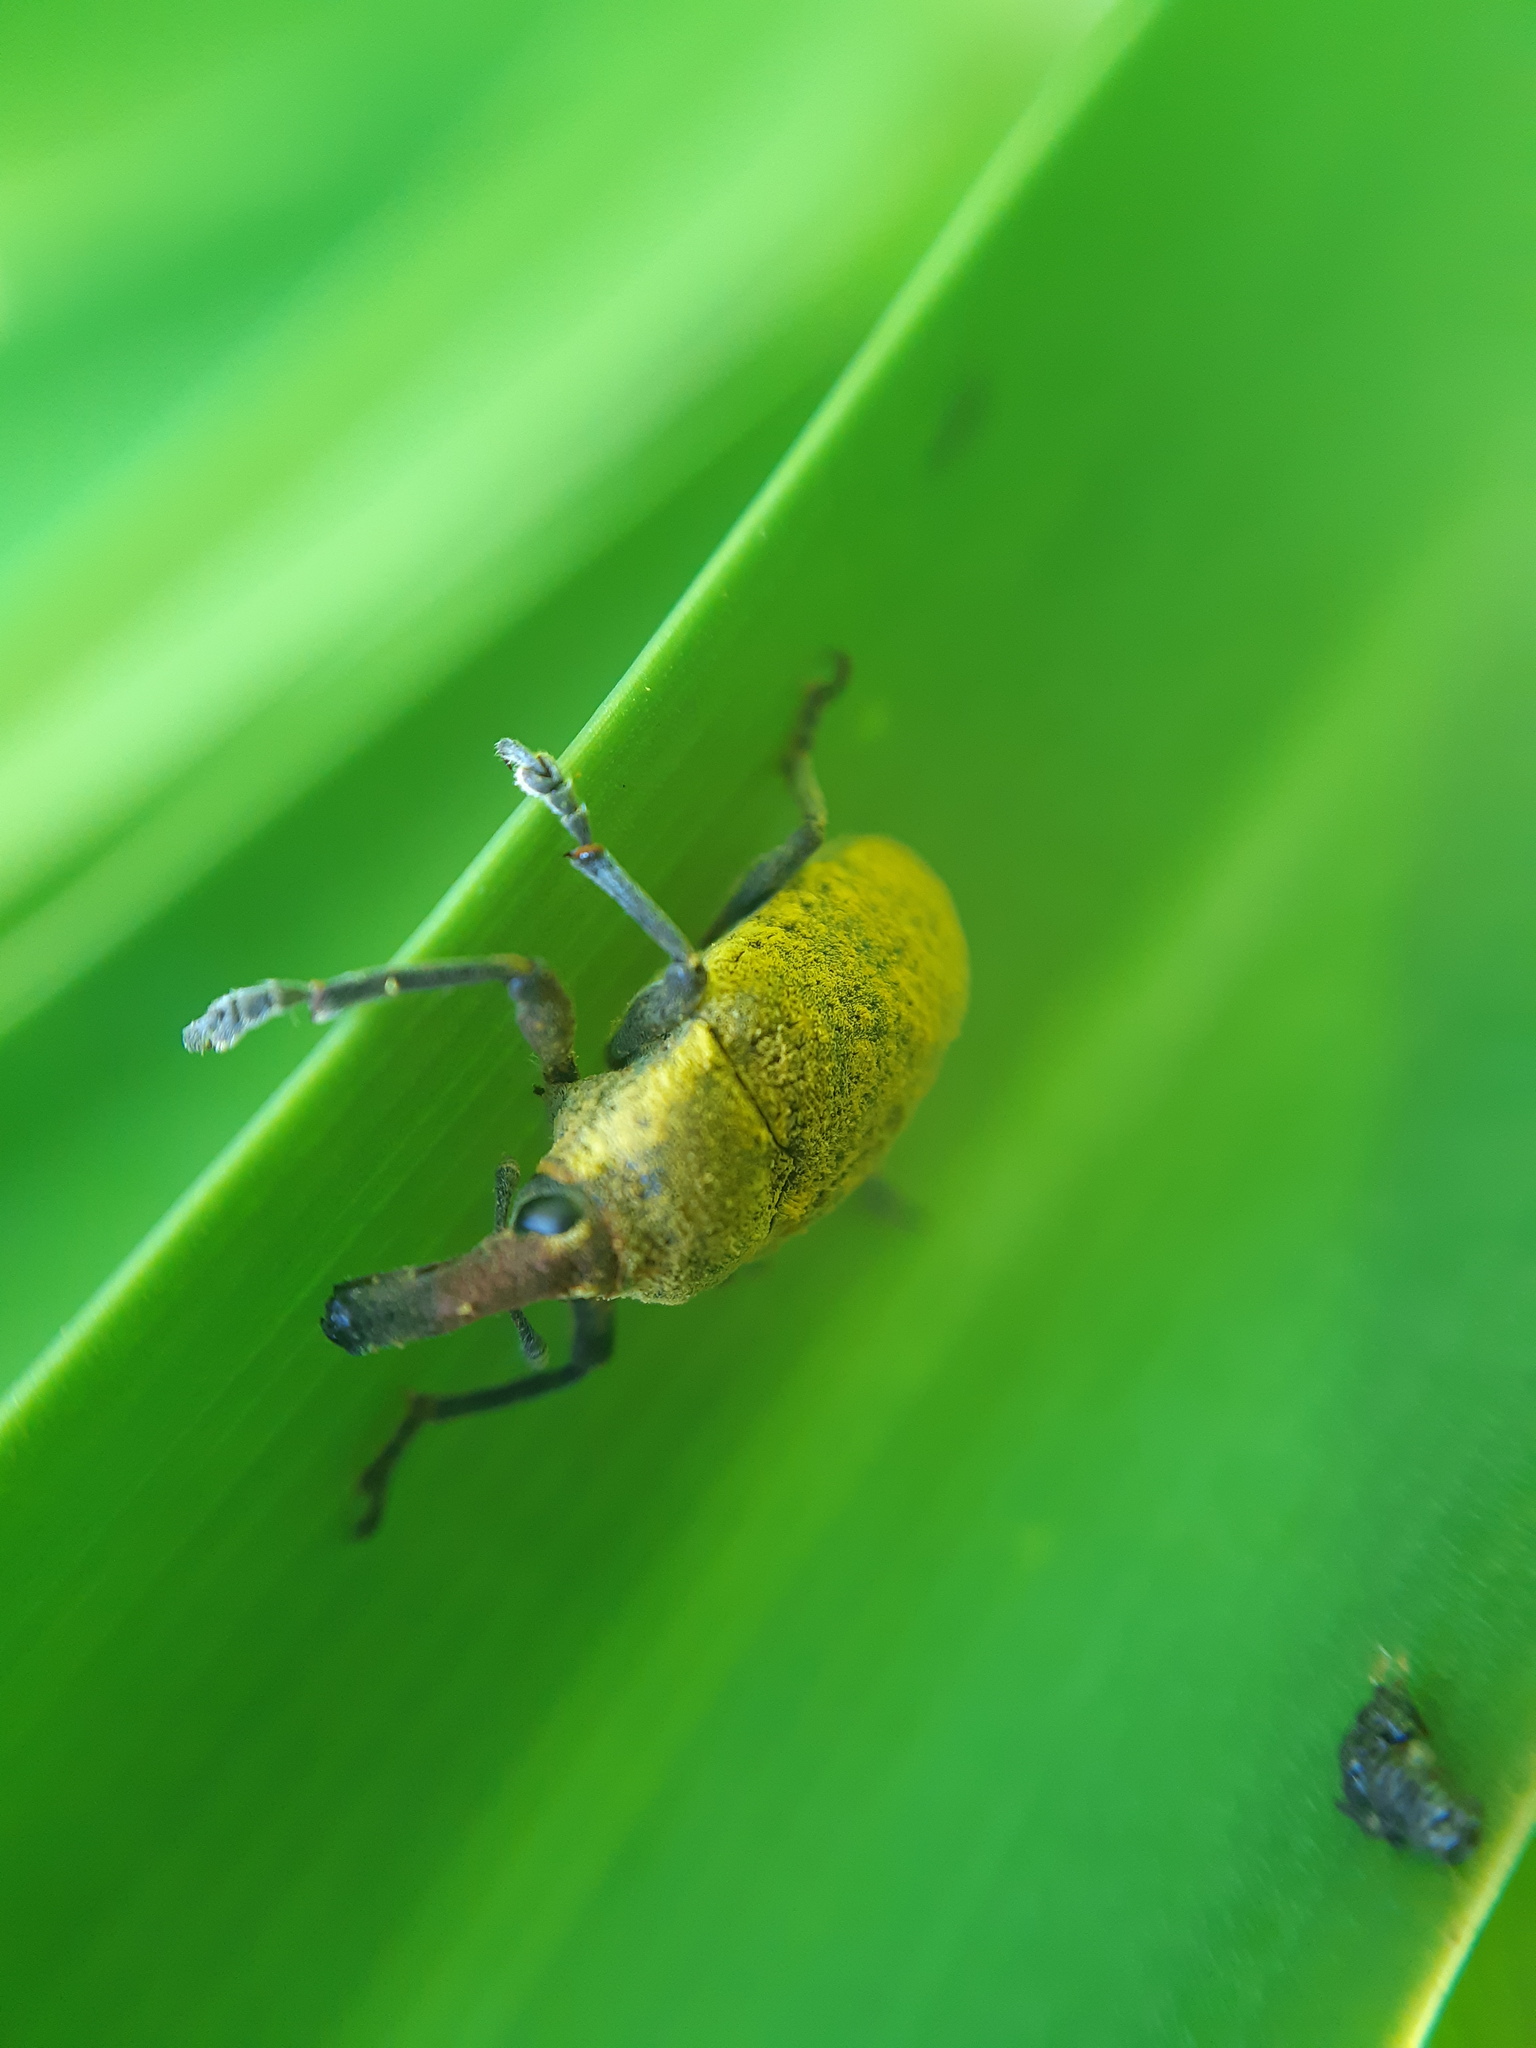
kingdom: Animalia
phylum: Arthropoda
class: Insecta
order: Coleoptera
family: Curculionidae
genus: Larinus
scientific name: Larinus latus
